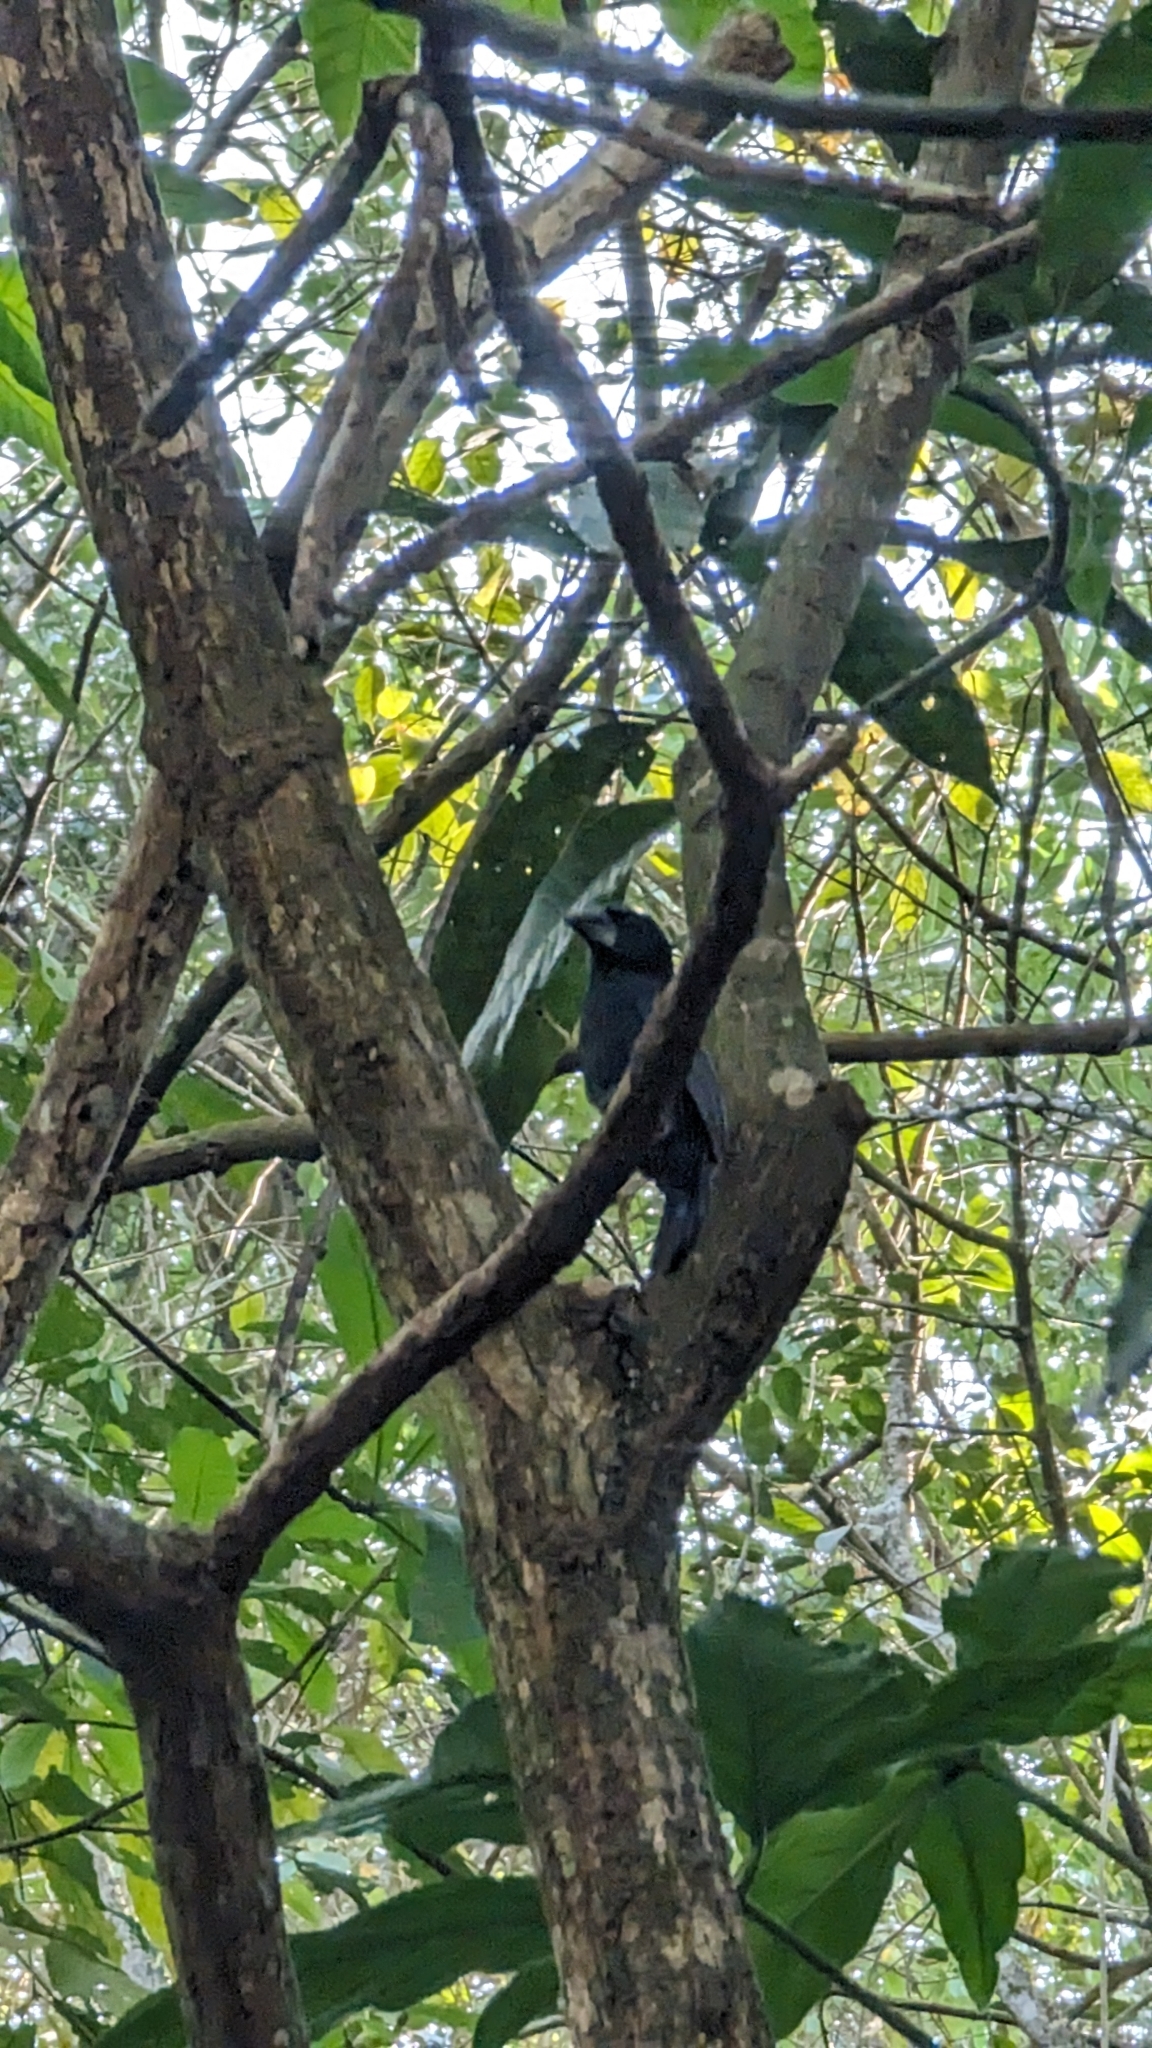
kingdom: Animalia
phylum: Chordata
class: Aves
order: Passeriformes
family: Cardinalidae
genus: Cyanocompsa
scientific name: Cyanocompsa cyanoides
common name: Blue-black grosbeak
